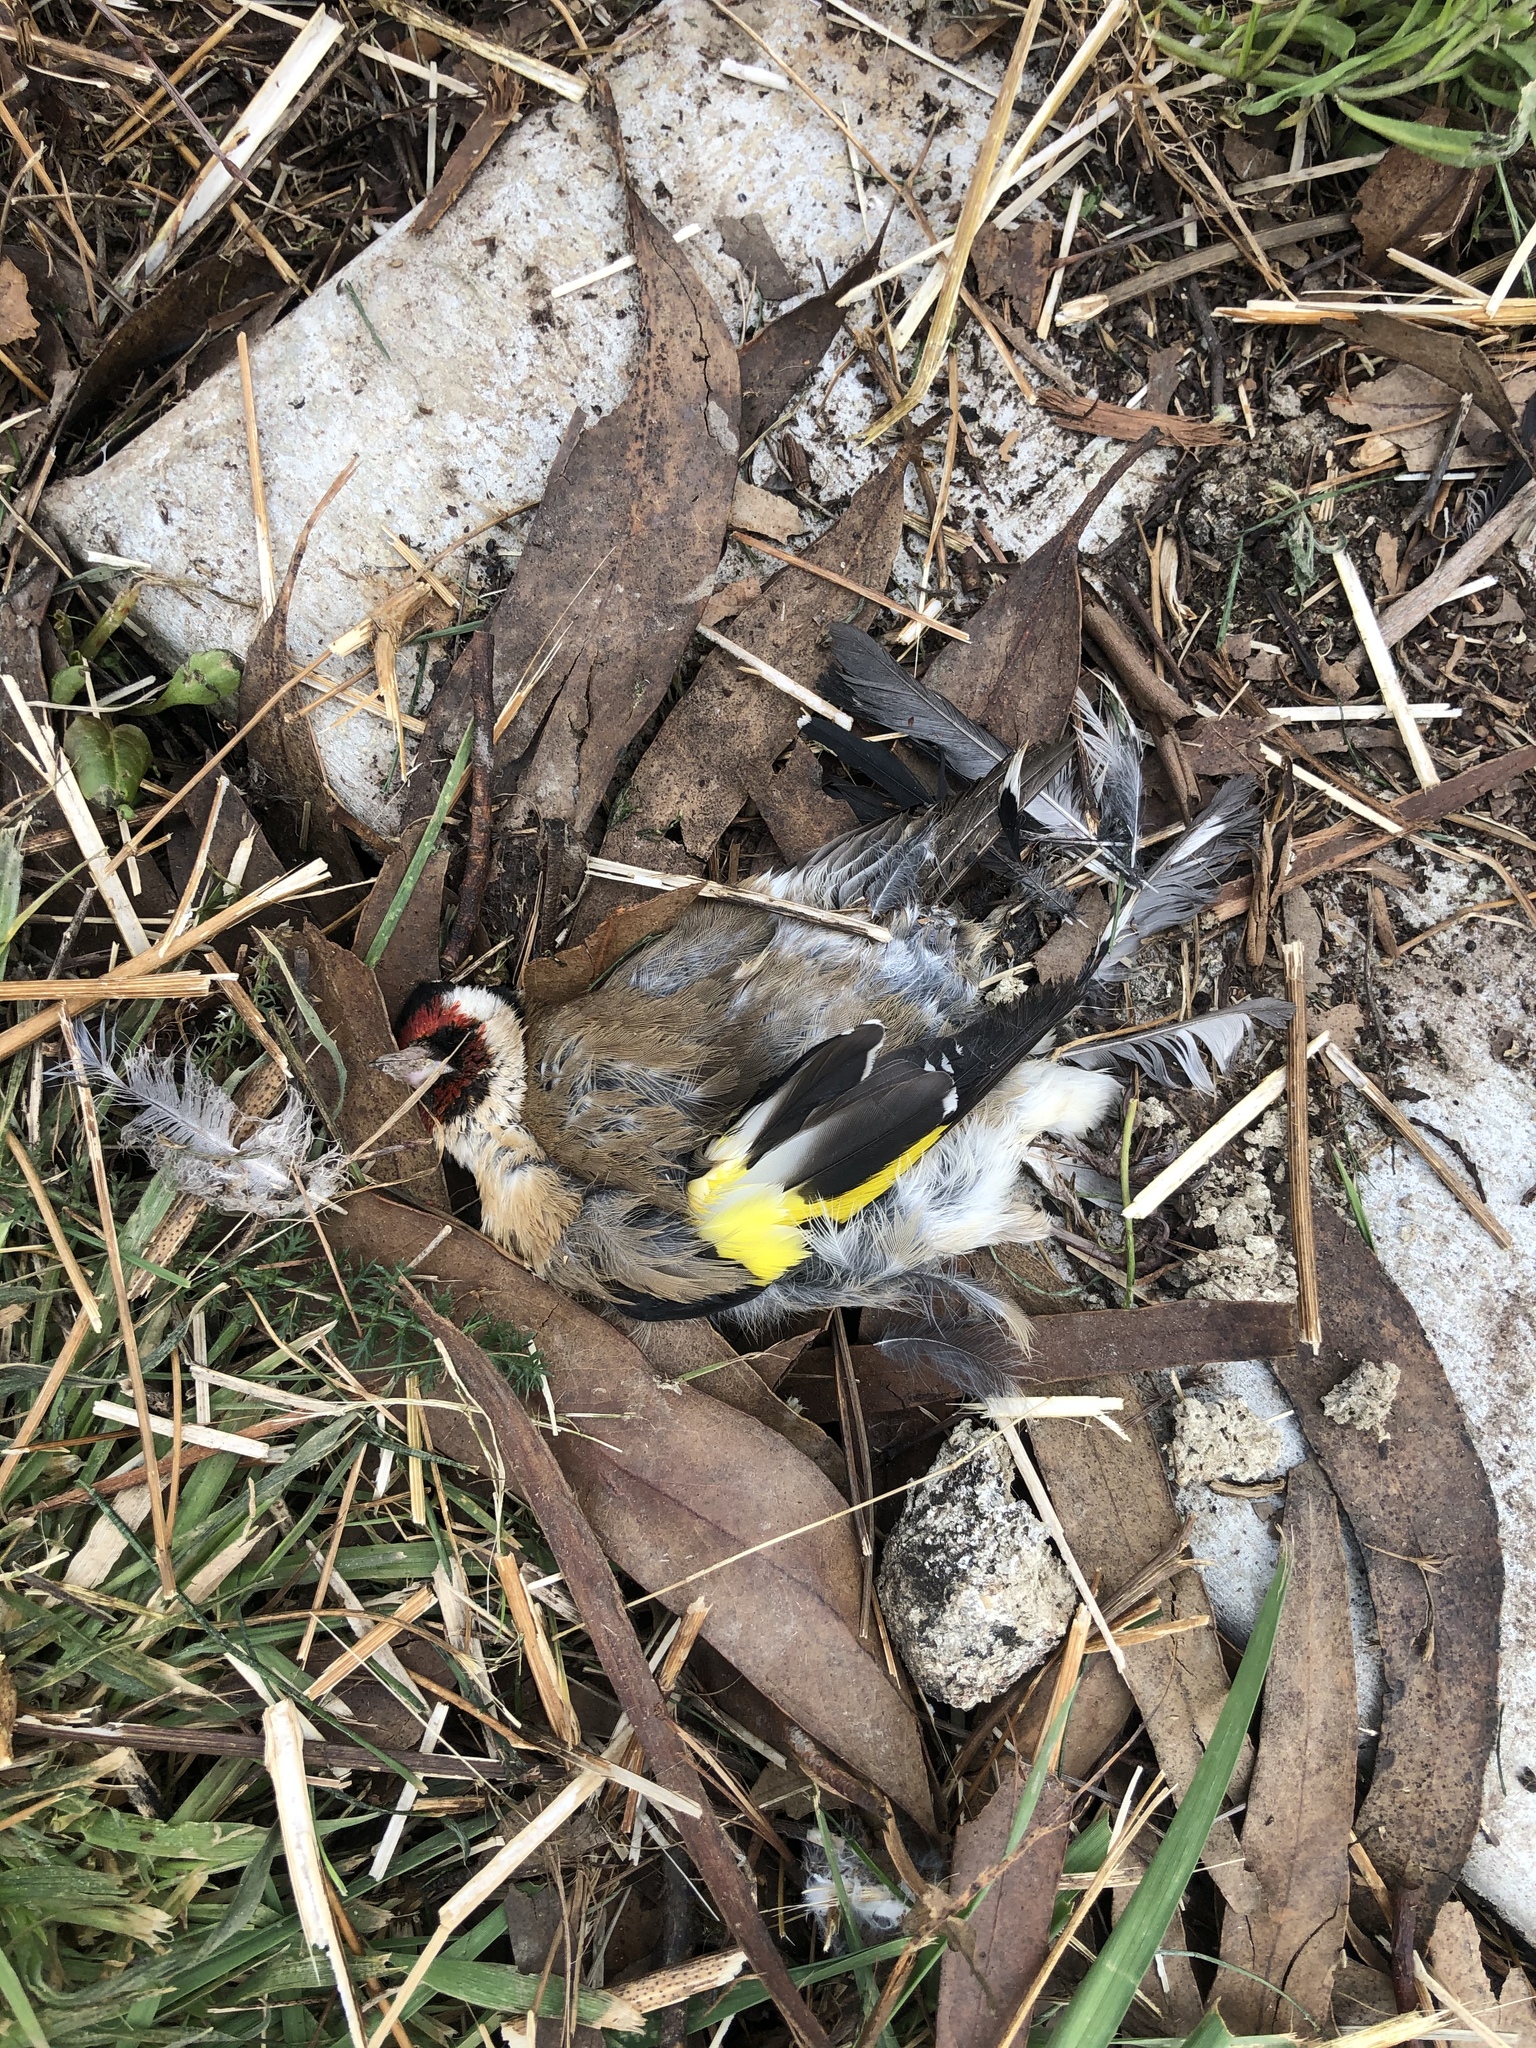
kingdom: Animalia
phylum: Chordata
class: Aves
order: Passeriformes
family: Fringillidae
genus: Carduelis
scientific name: Carduelis carduelis
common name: European goldfinch
